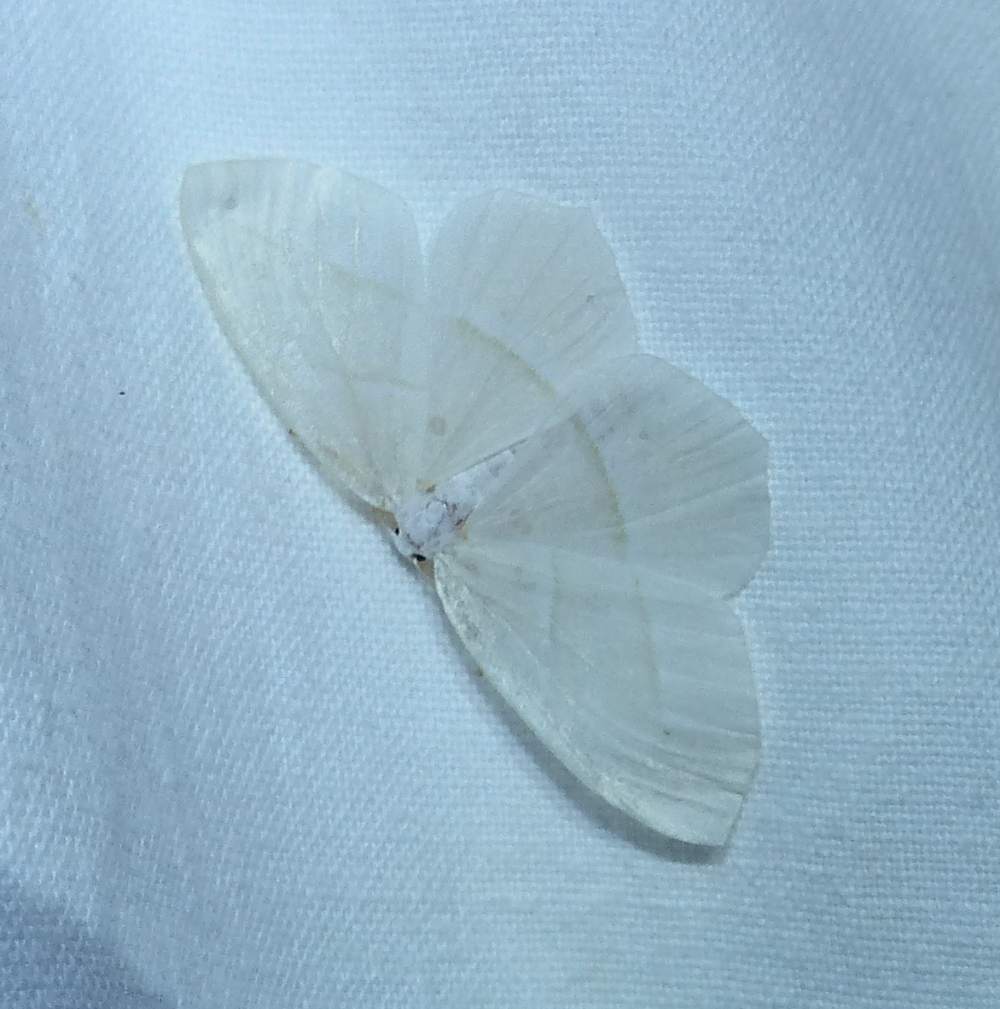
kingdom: Animalia
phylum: Arthropoda
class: Insecta
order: Lepidoptera
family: Geometridae
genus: Campaea
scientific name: Campaea perlata
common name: Fringed looper
